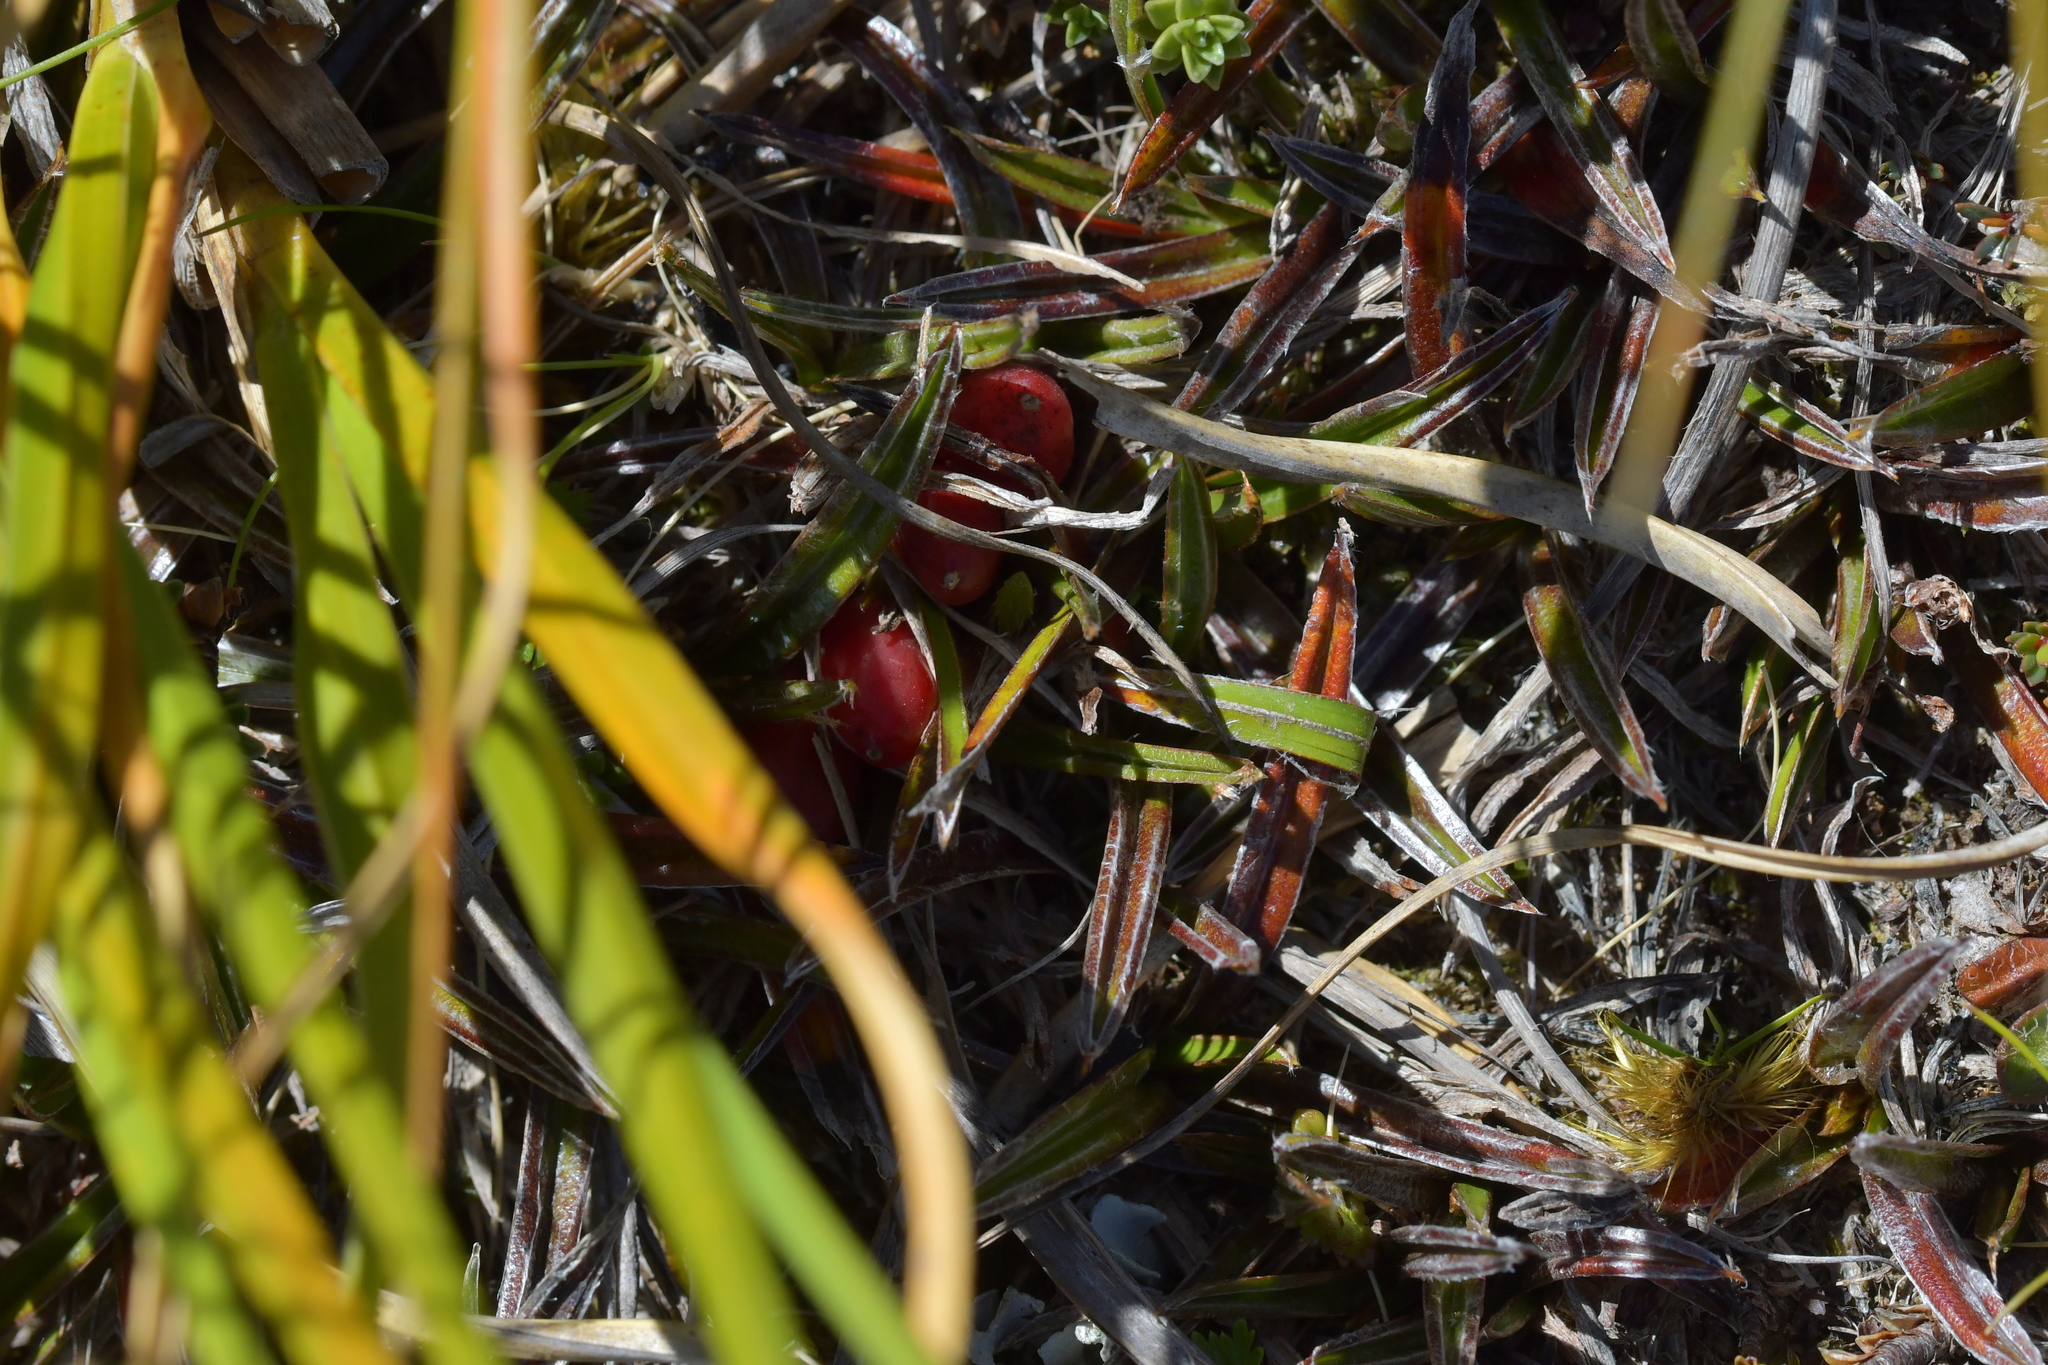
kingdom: Plantae
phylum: Tracheophyta
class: Liliopsida
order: Asparagales
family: Asteliaceae
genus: Astelia
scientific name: Astelia linearis
